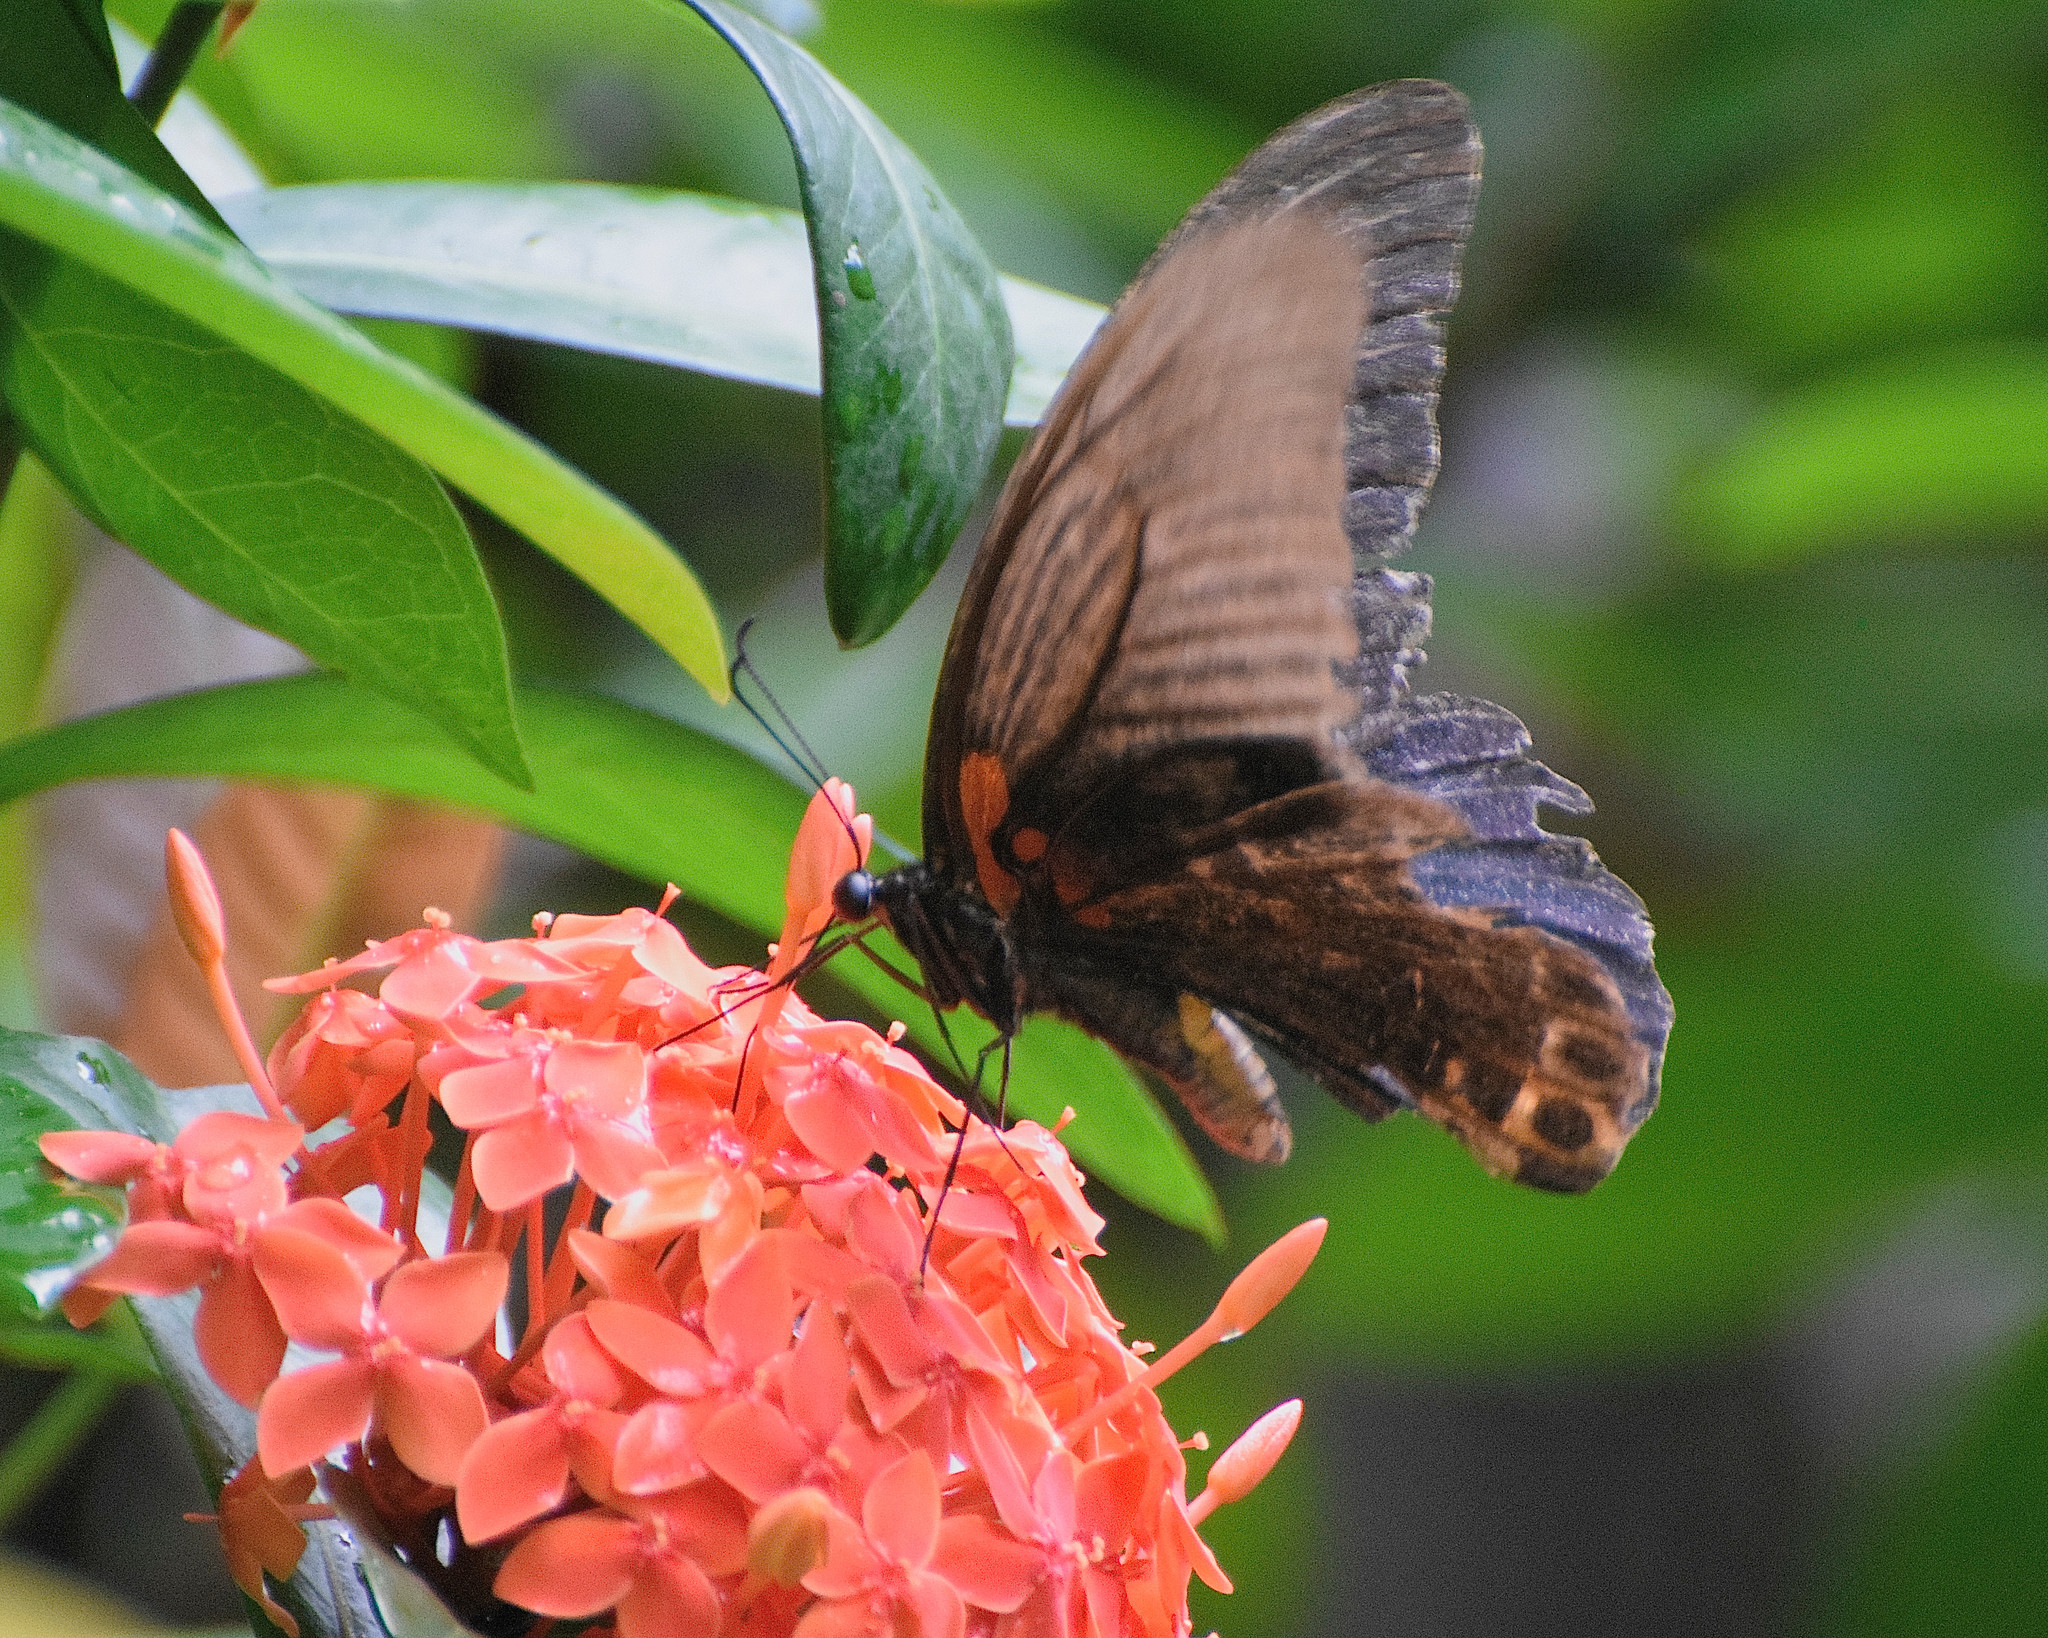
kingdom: Animalia
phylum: Arthropoda
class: Insecta
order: Lepidoptera
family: Papilionidae
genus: Papilio
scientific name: Papilio memnon
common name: Great mormon
